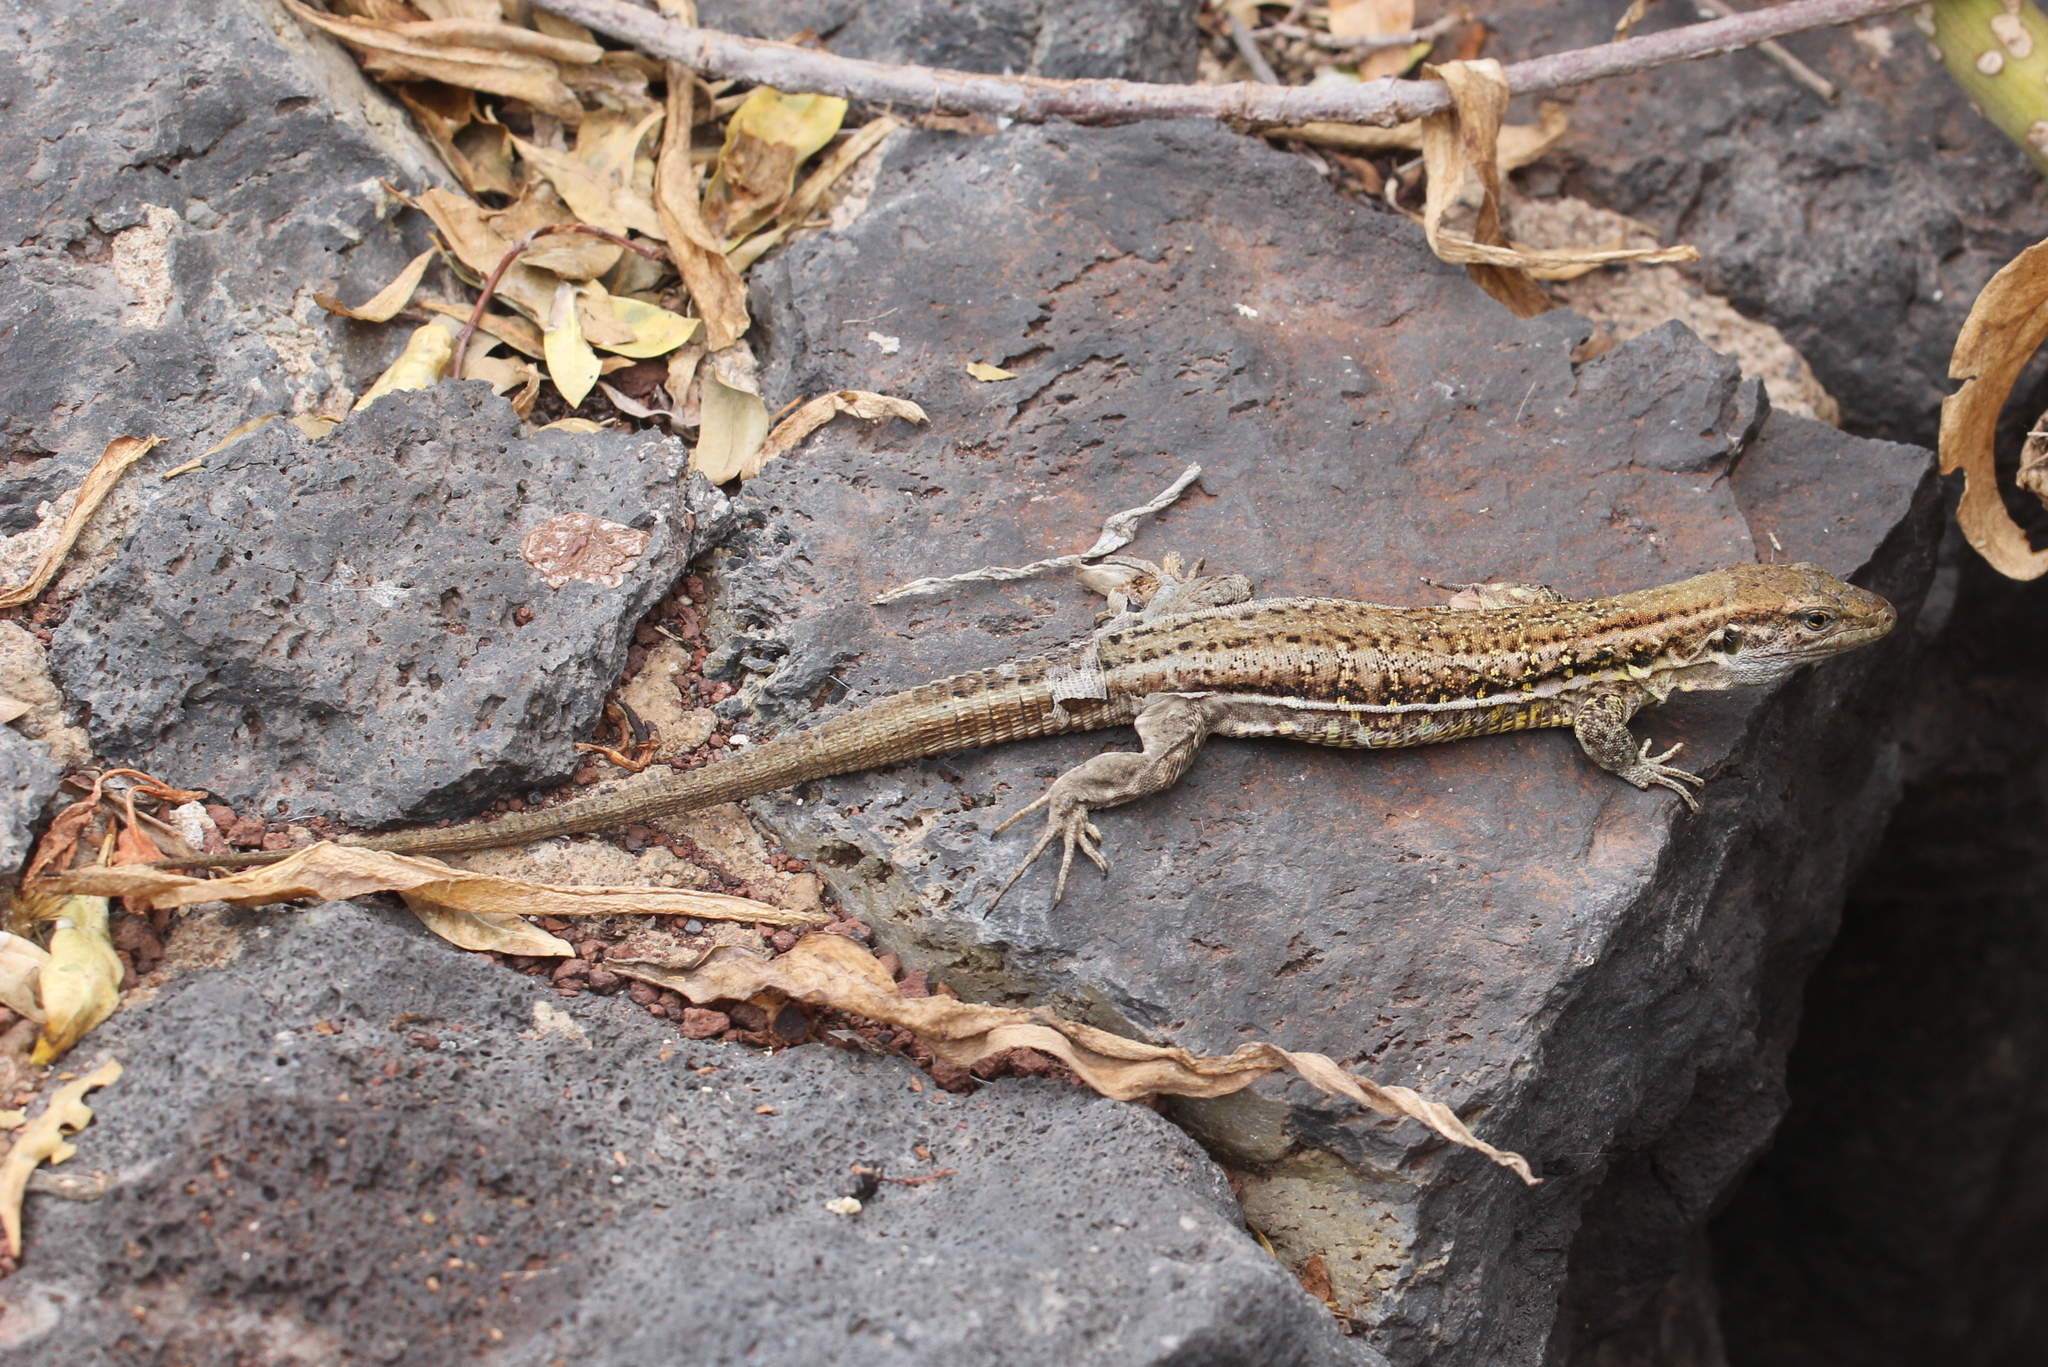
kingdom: Animalia
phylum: Chordata
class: Squamata
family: Lacertidae
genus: Gallotia
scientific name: Gallotia galloti
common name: Gallot's lizard
